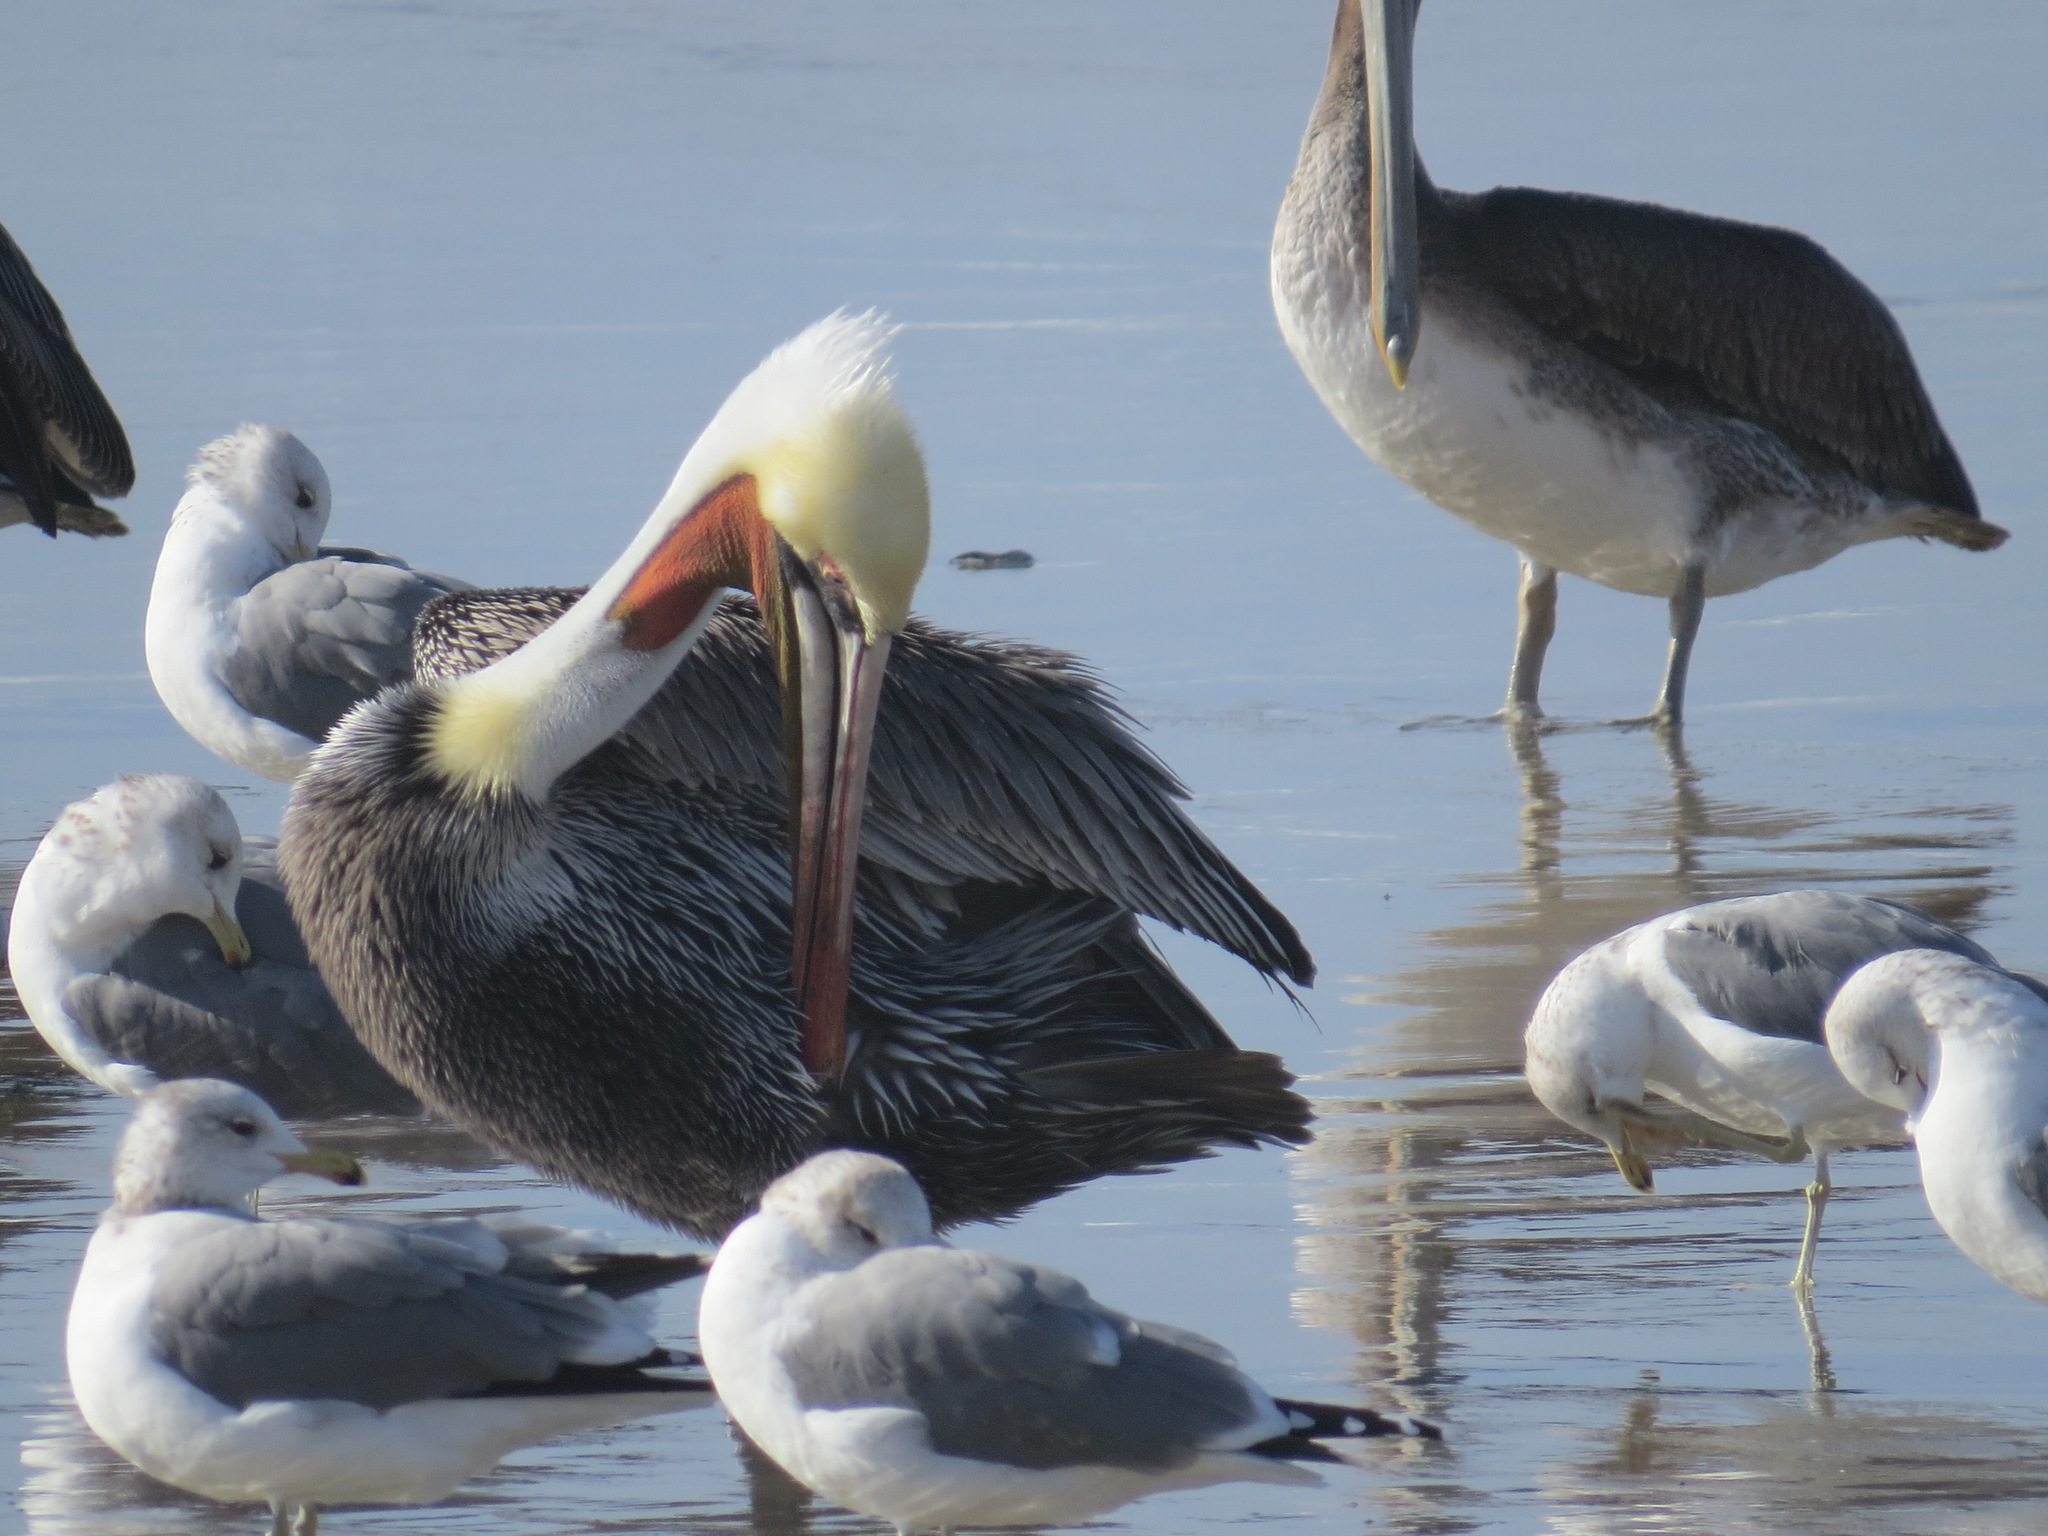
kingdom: Animalia
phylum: Chordata
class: Aves
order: Pelecaniformes
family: Pelecanidae
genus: Pelecanus
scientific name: Pelecanus occidentalis
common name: Brown pelican
